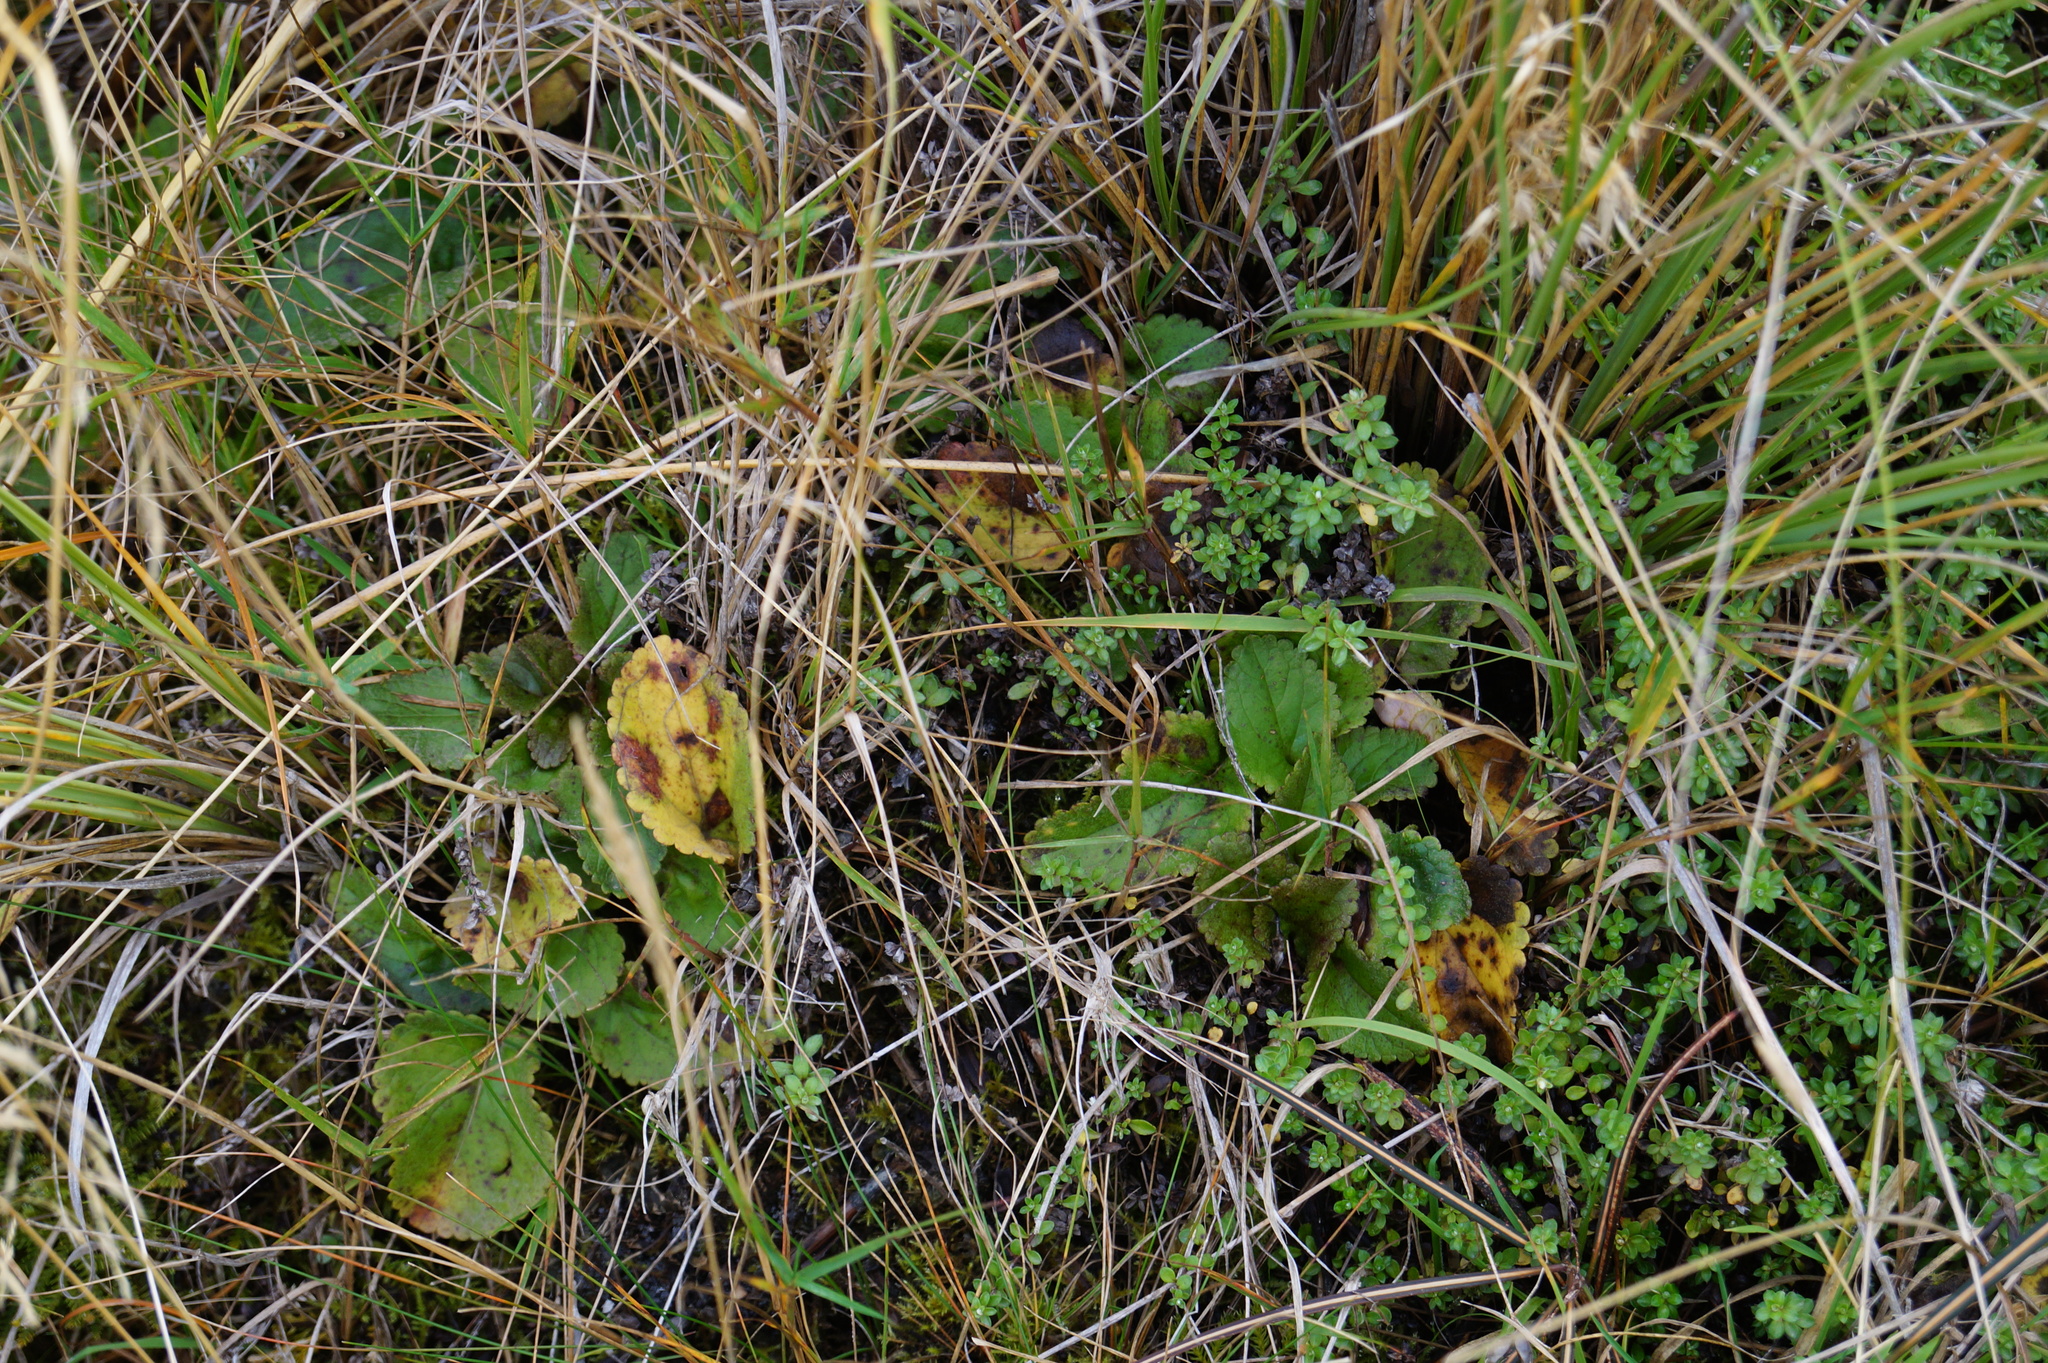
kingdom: Plantae
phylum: Tracheophyta
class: Magnoliopsida
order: Lamiales
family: Plantaginaceae
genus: Ourisia
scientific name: Ourisia macrophylla
